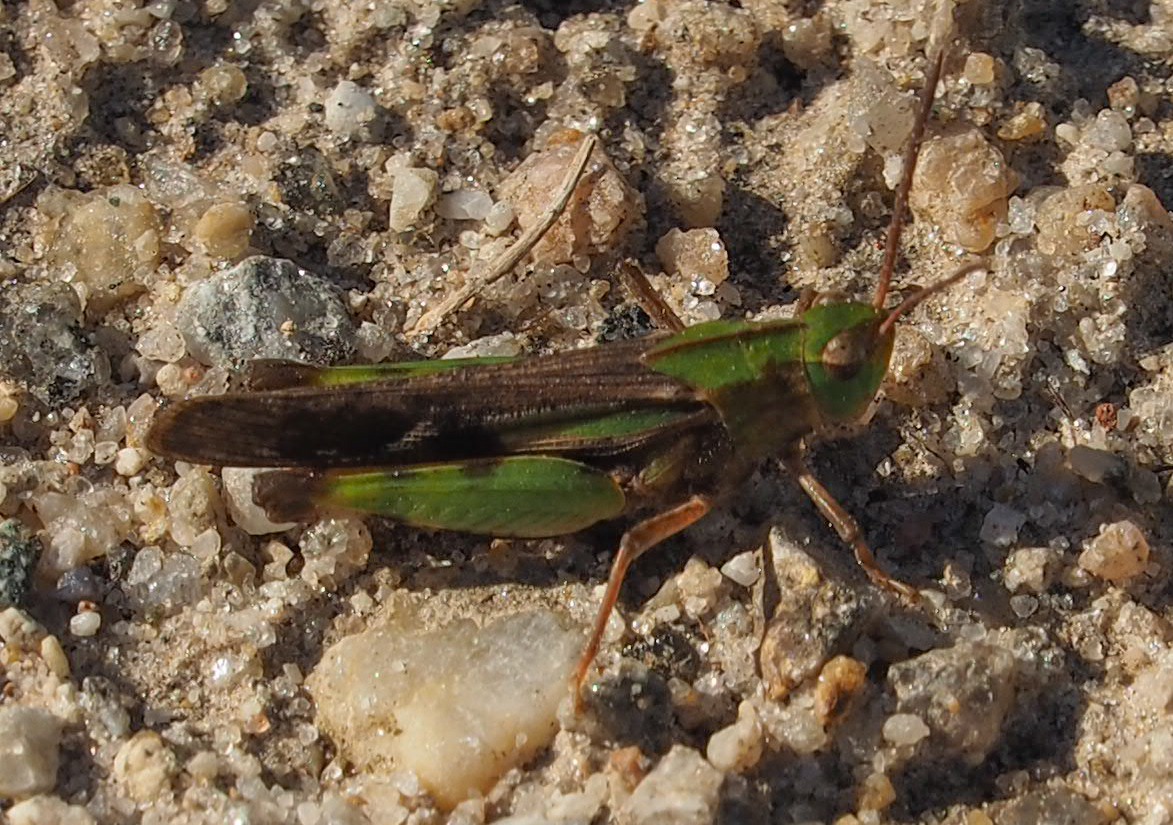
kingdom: Animalia
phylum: Arthropoda
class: Insecta
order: Orthoptera
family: Acrididae
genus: Chortophaga
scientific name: Chortophaga viridifasciata
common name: Green-striped grasshopper
